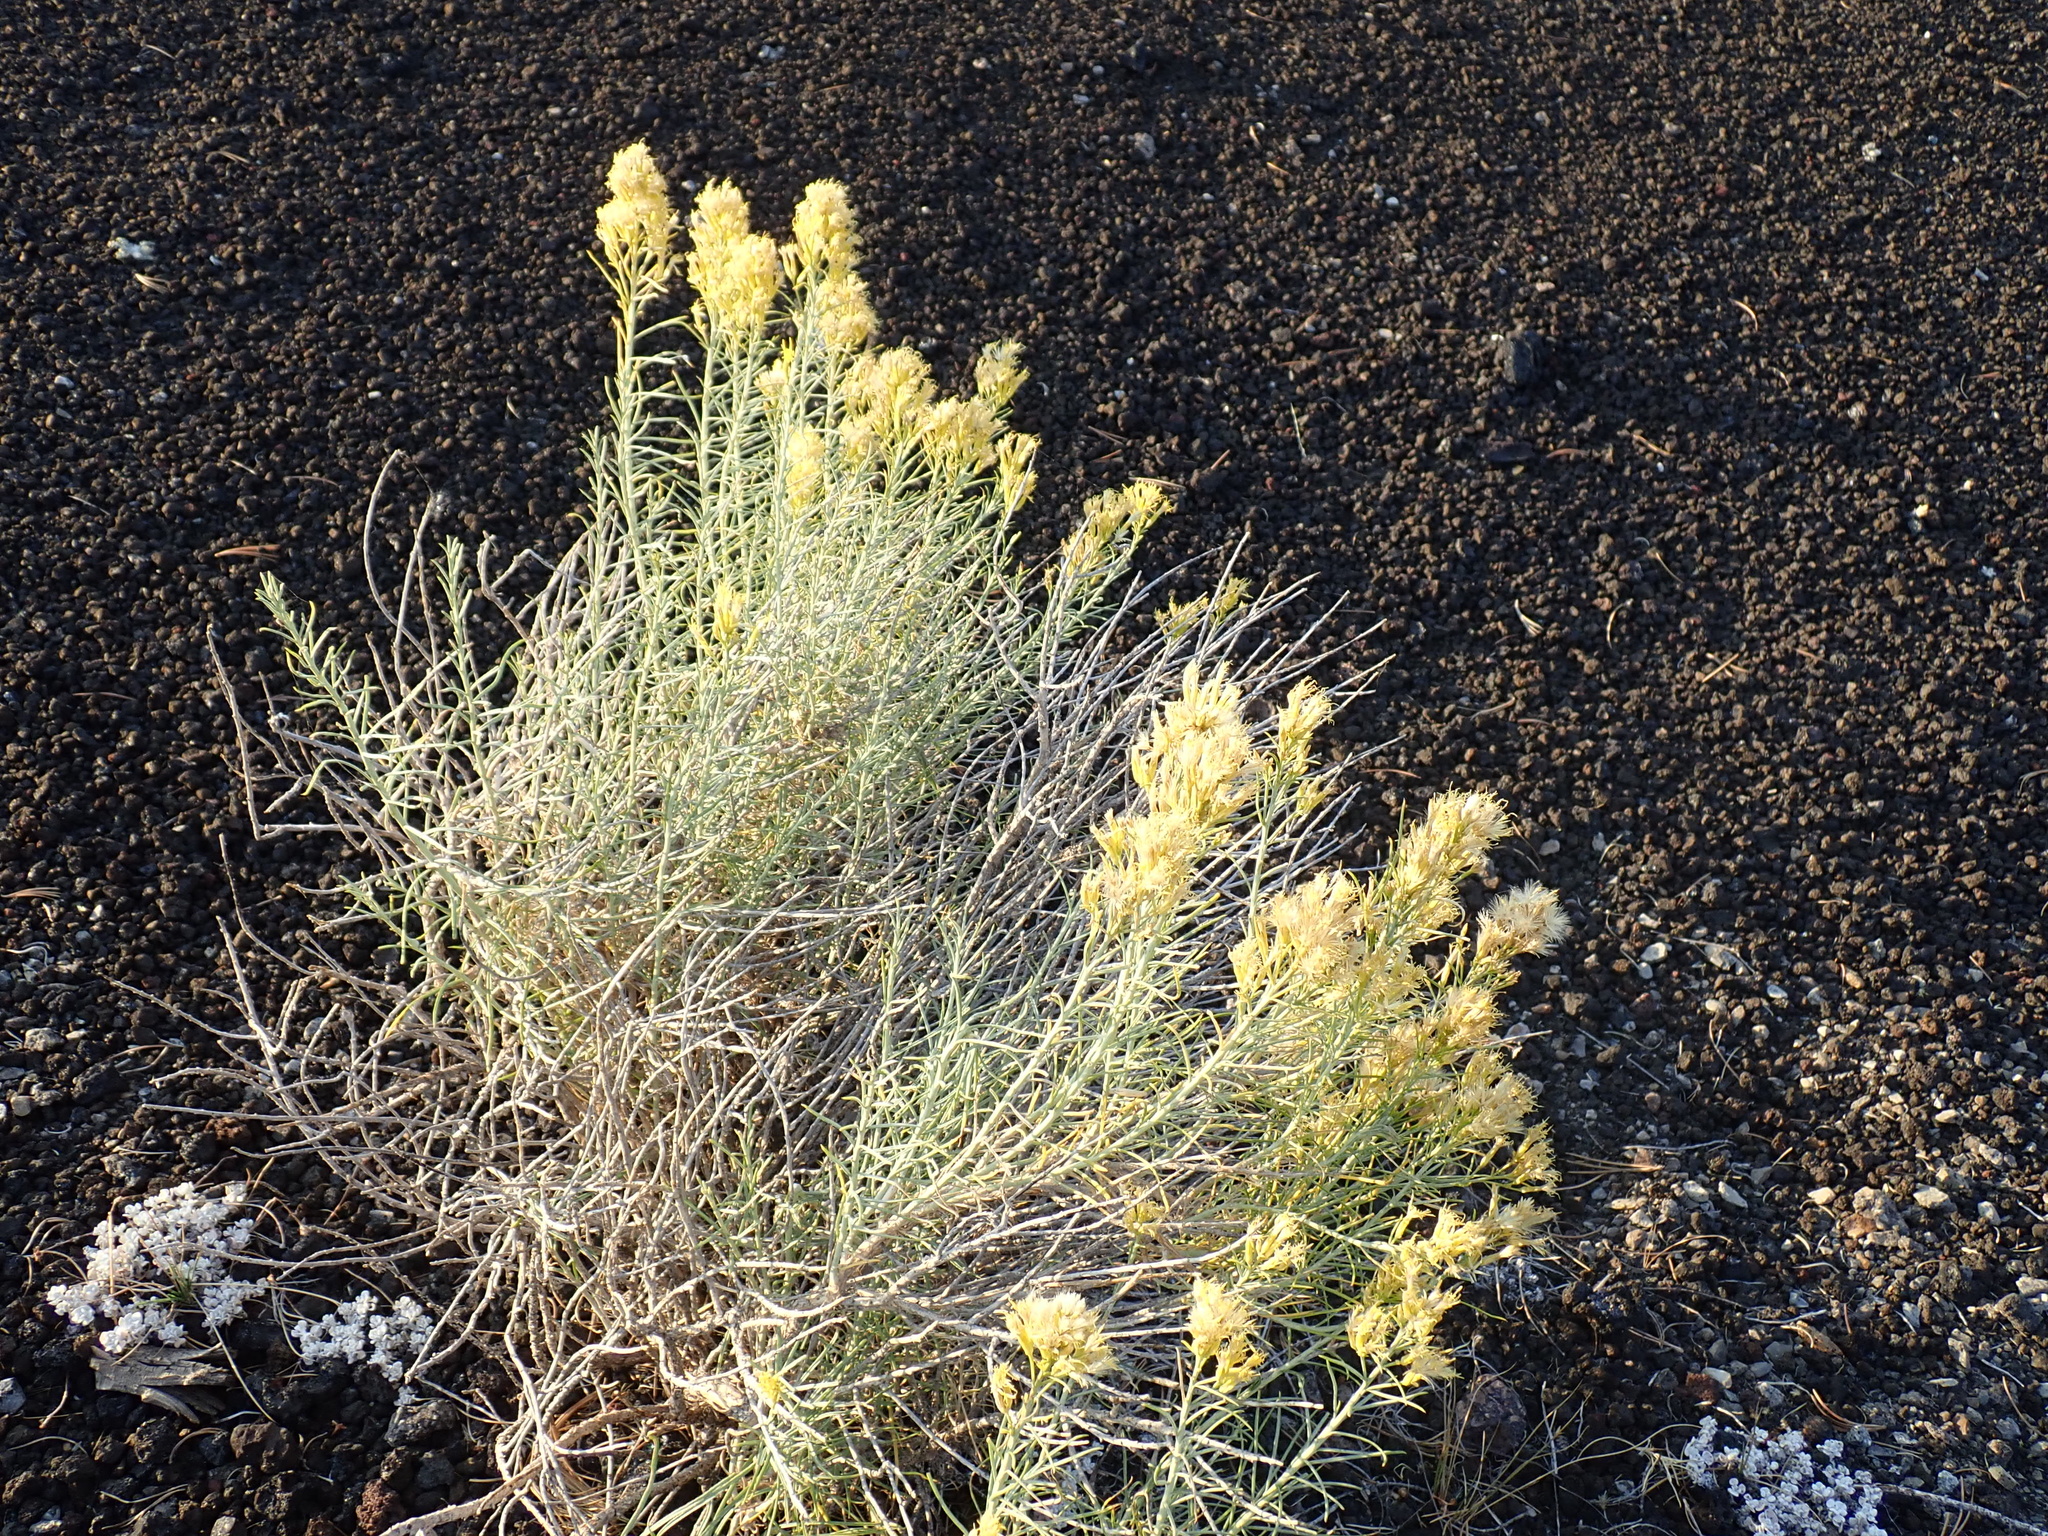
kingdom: Plantae
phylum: Tracheophyta
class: Magnoliopsida
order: Asterales
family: Asteraceae
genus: Ericameria
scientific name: Ericameria nauseosa
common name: Rubber rabbitbrush
